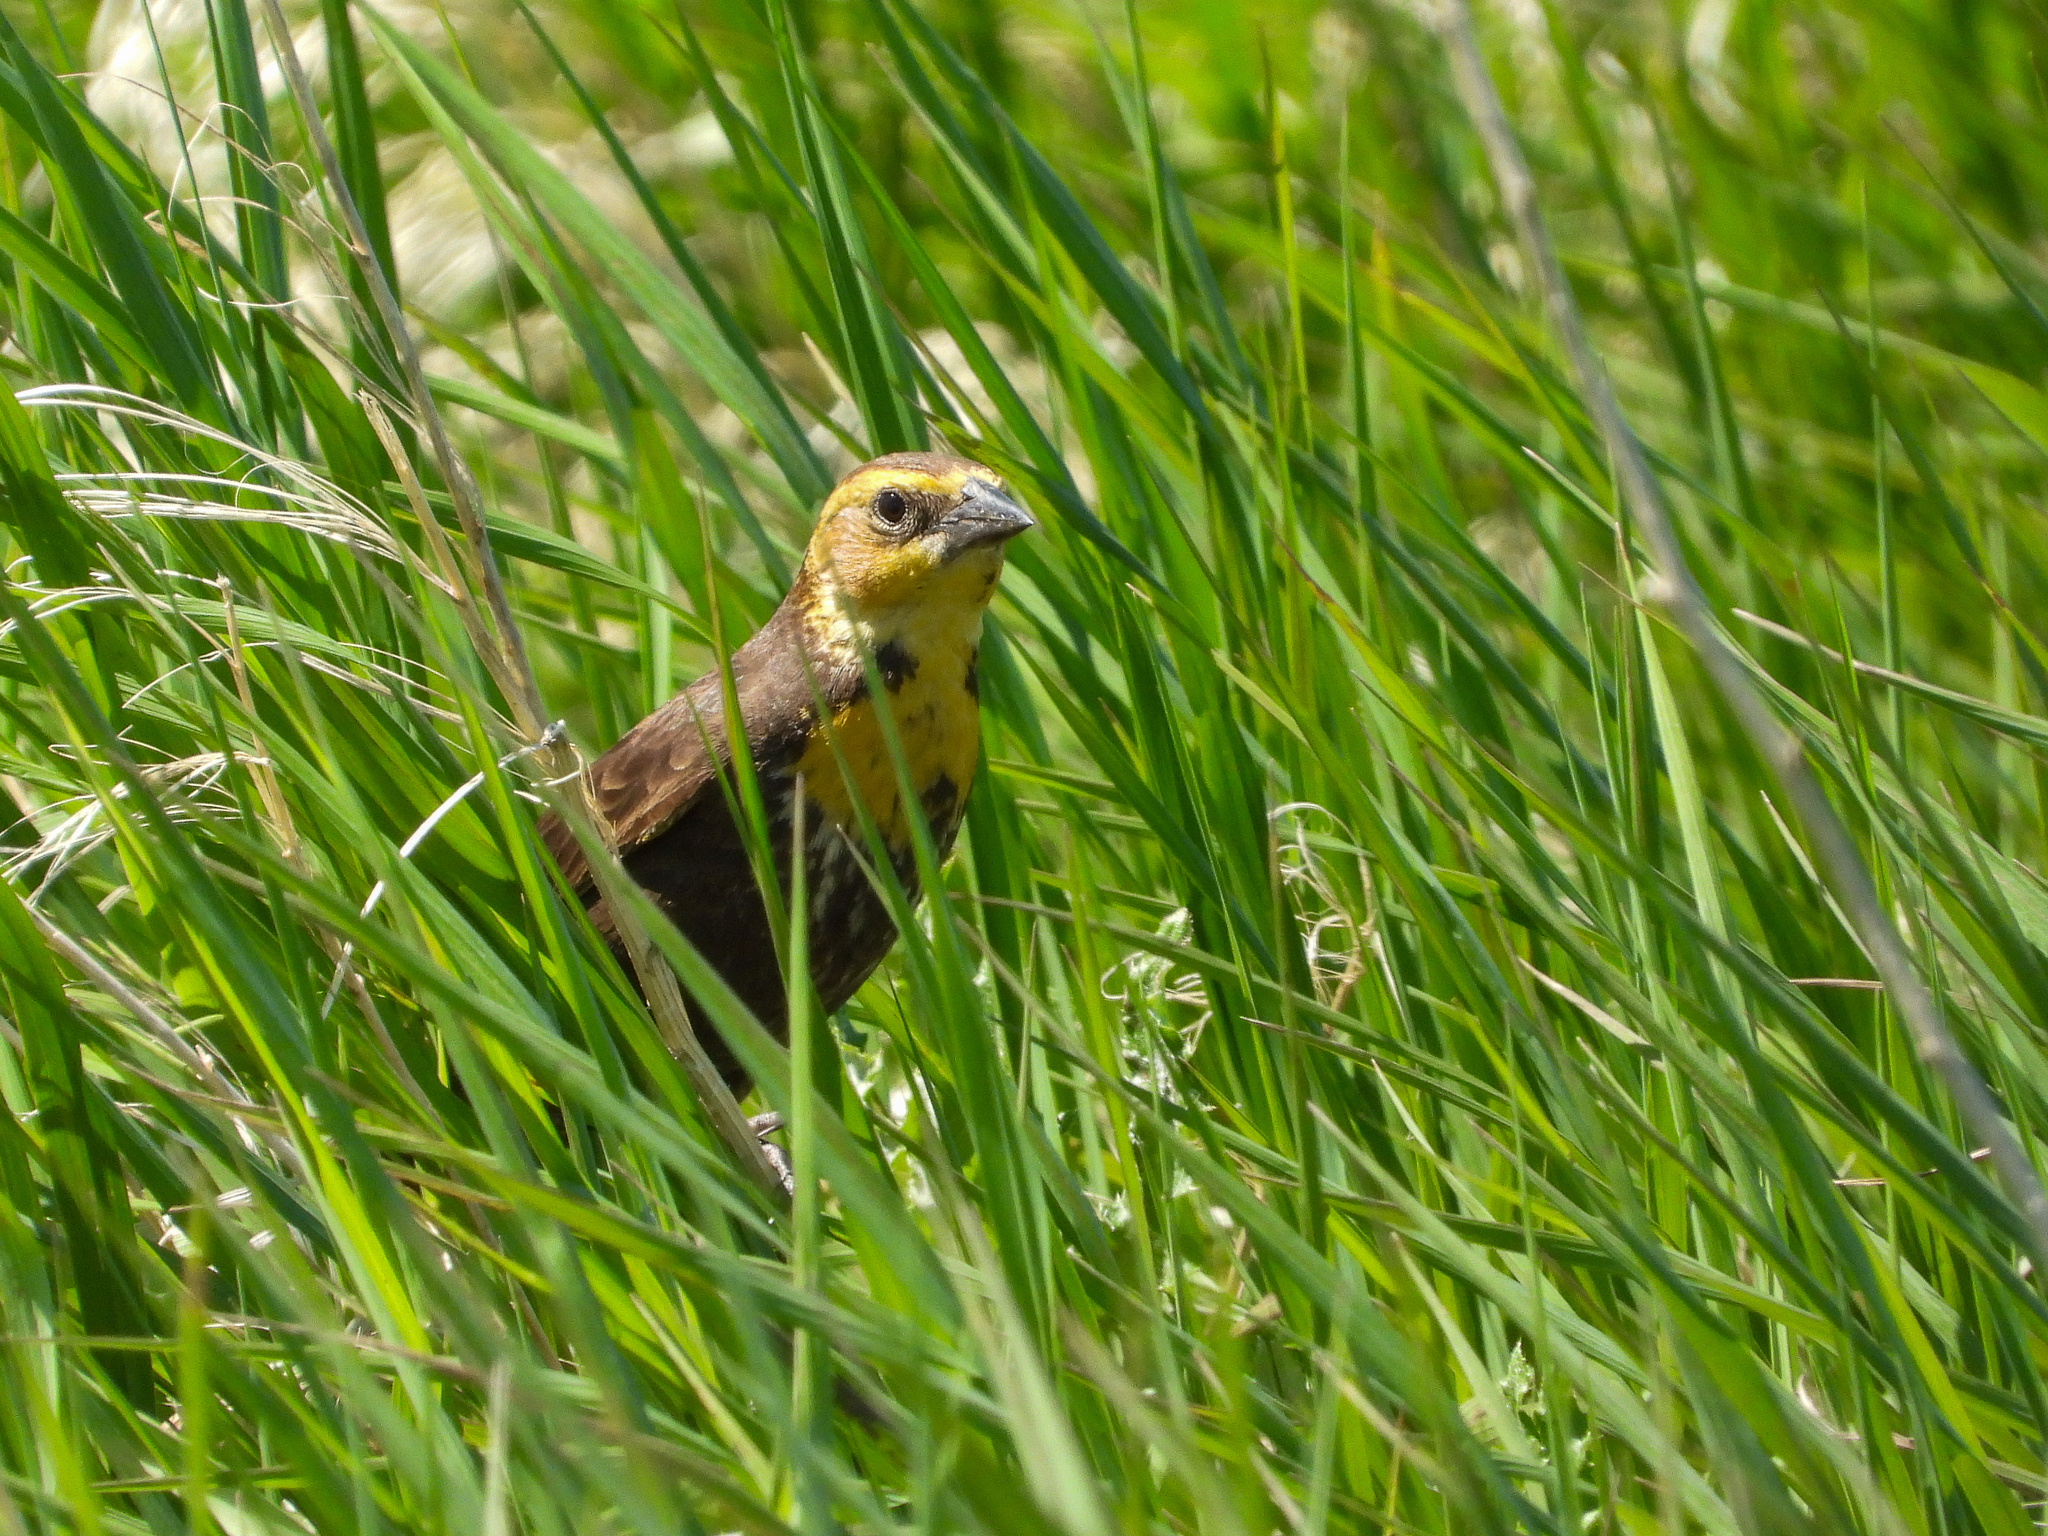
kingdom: Animalia
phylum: Chordata
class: Aves
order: Passeriformes
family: Icteridae
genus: Xanthocephalus
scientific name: Xanthocephalus xanthocephalus
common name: Yellow-headed blackbird
